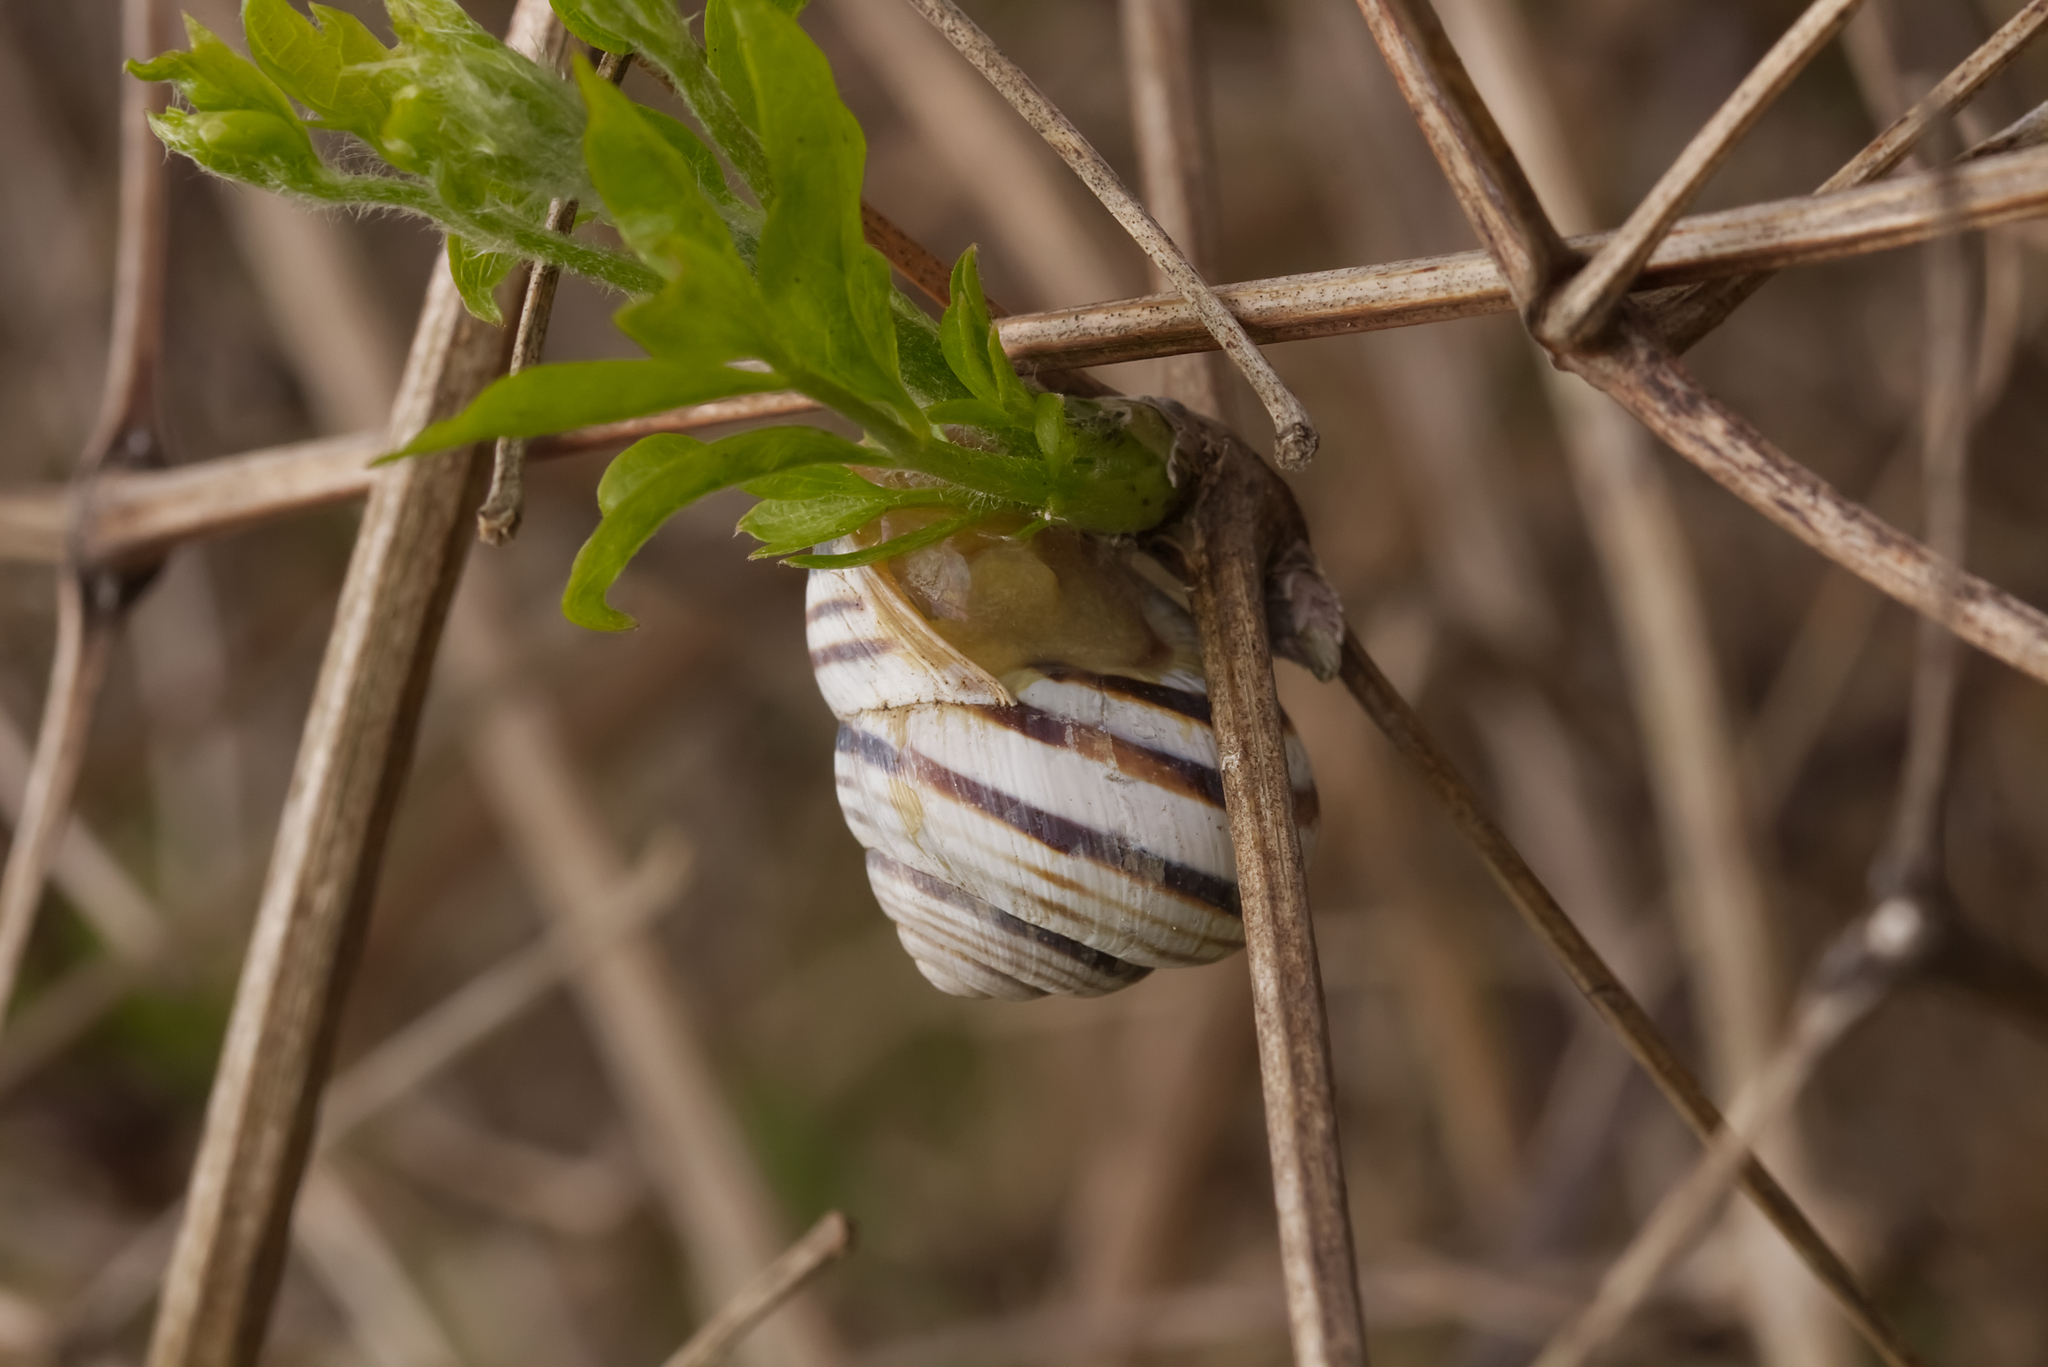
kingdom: Animalia
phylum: Mollusca
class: Gastropoda
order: Stylommatophora
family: Helicidae
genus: Caucasotachea
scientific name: Caucasotachea vindobonensis
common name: European helicid land snail
